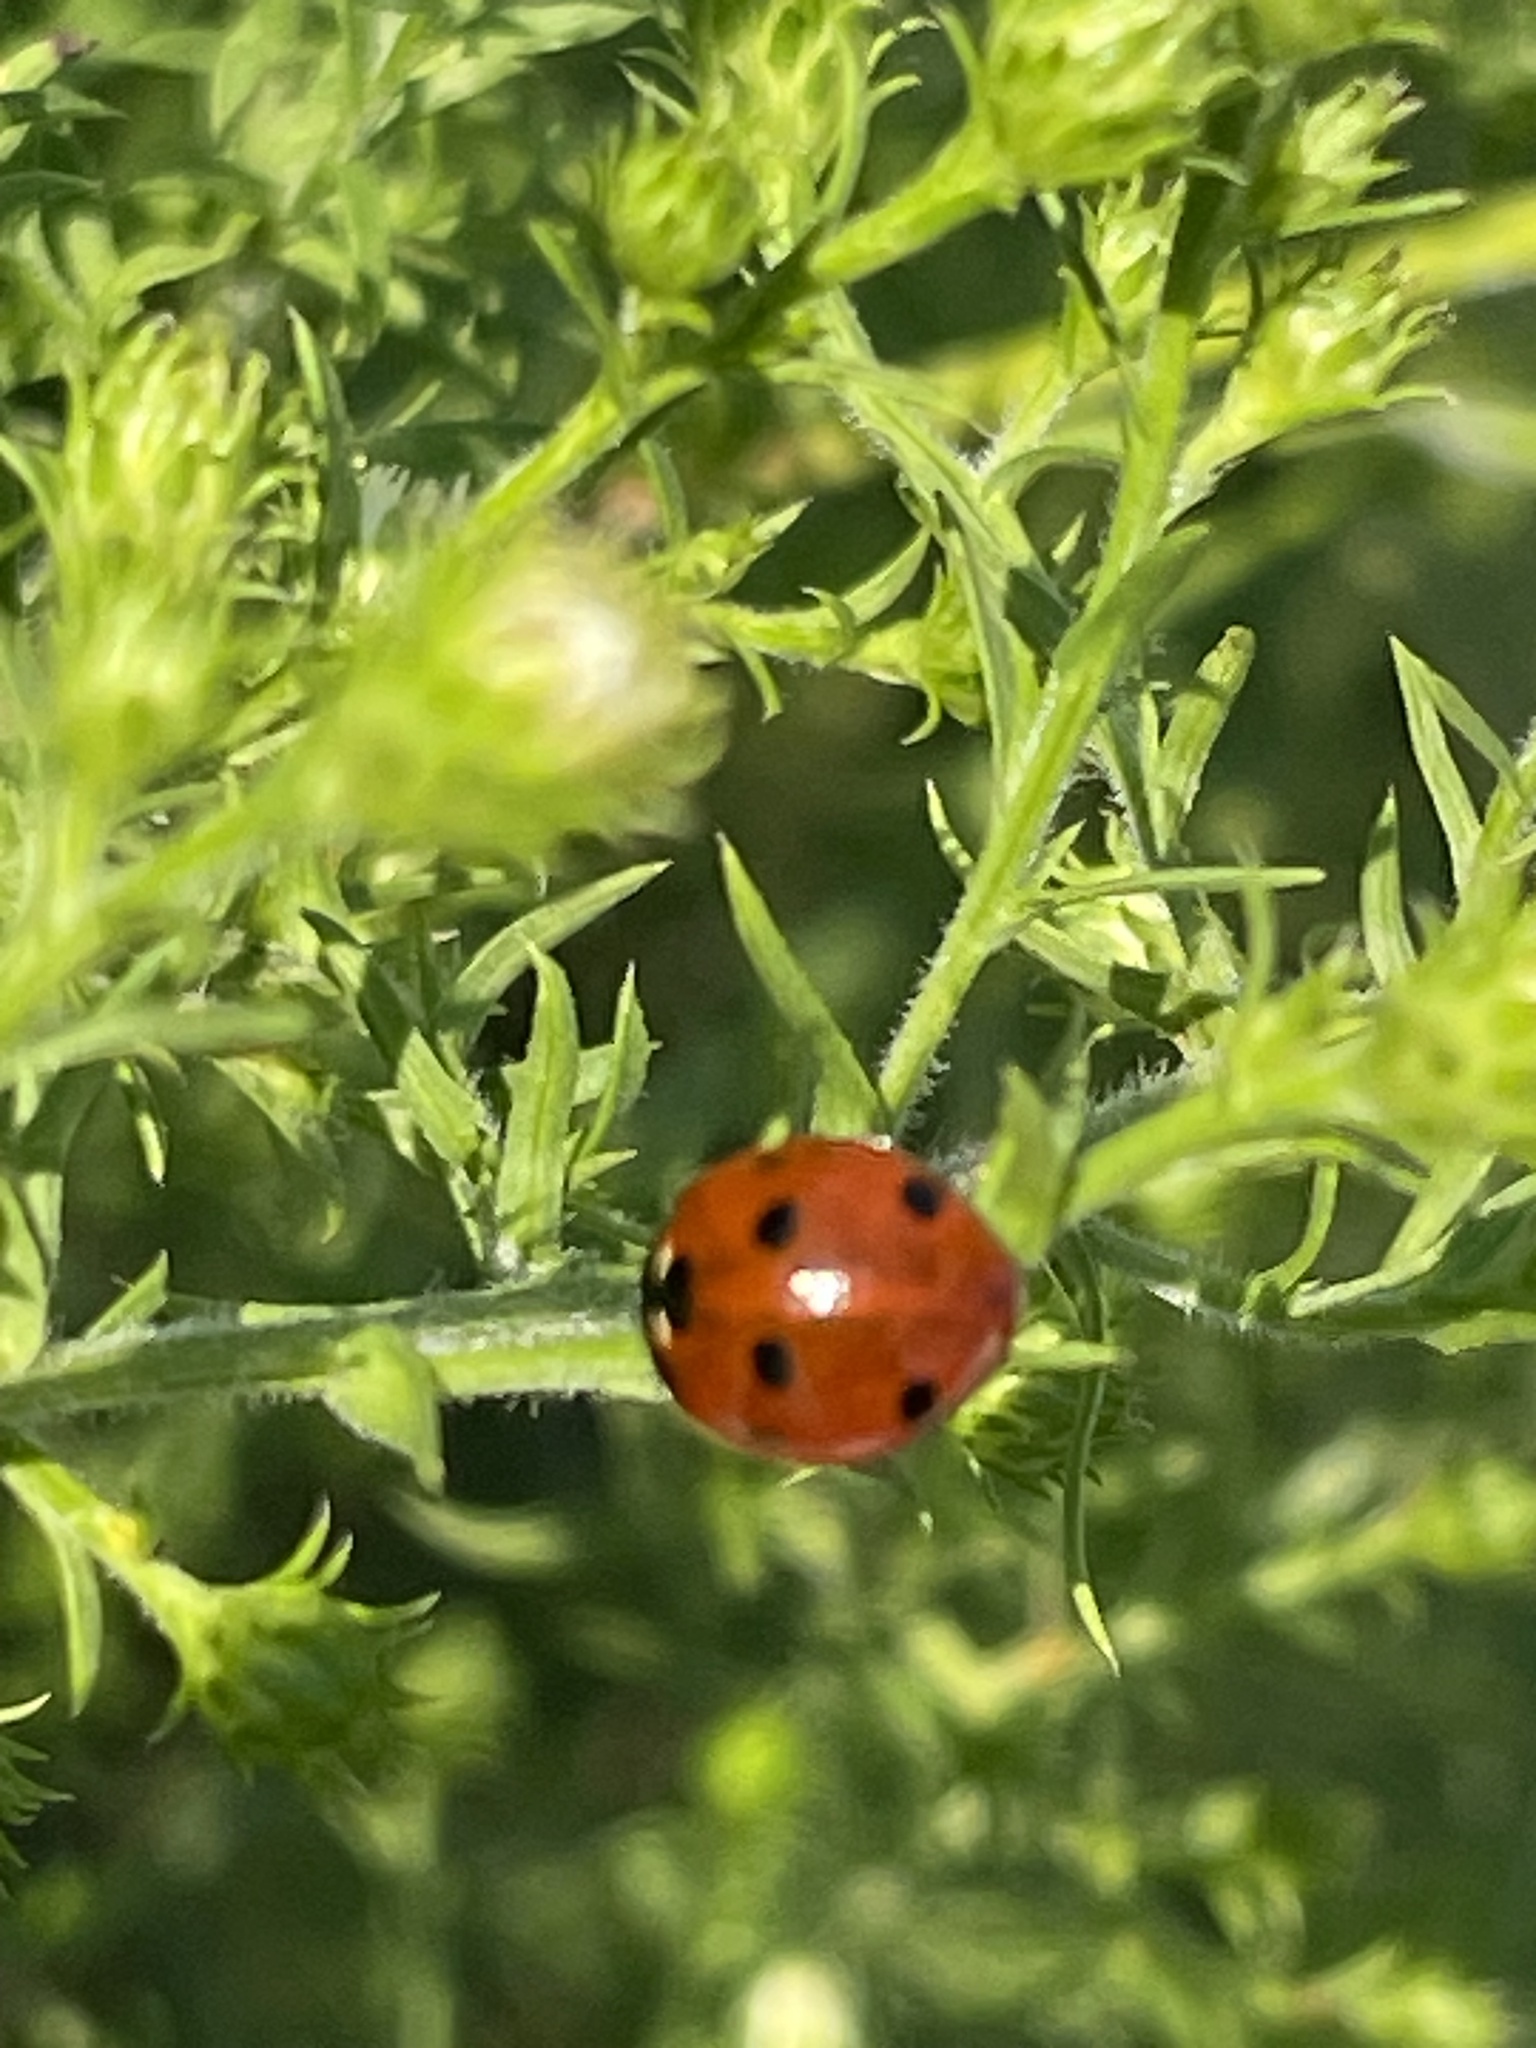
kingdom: Animalia
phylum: Arthropoda
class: Insecta
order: Coleoptera
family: Coccinellidae
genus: Coccinella
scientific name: Coccinella septempunctata
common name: Sevenspotted lady beetle
